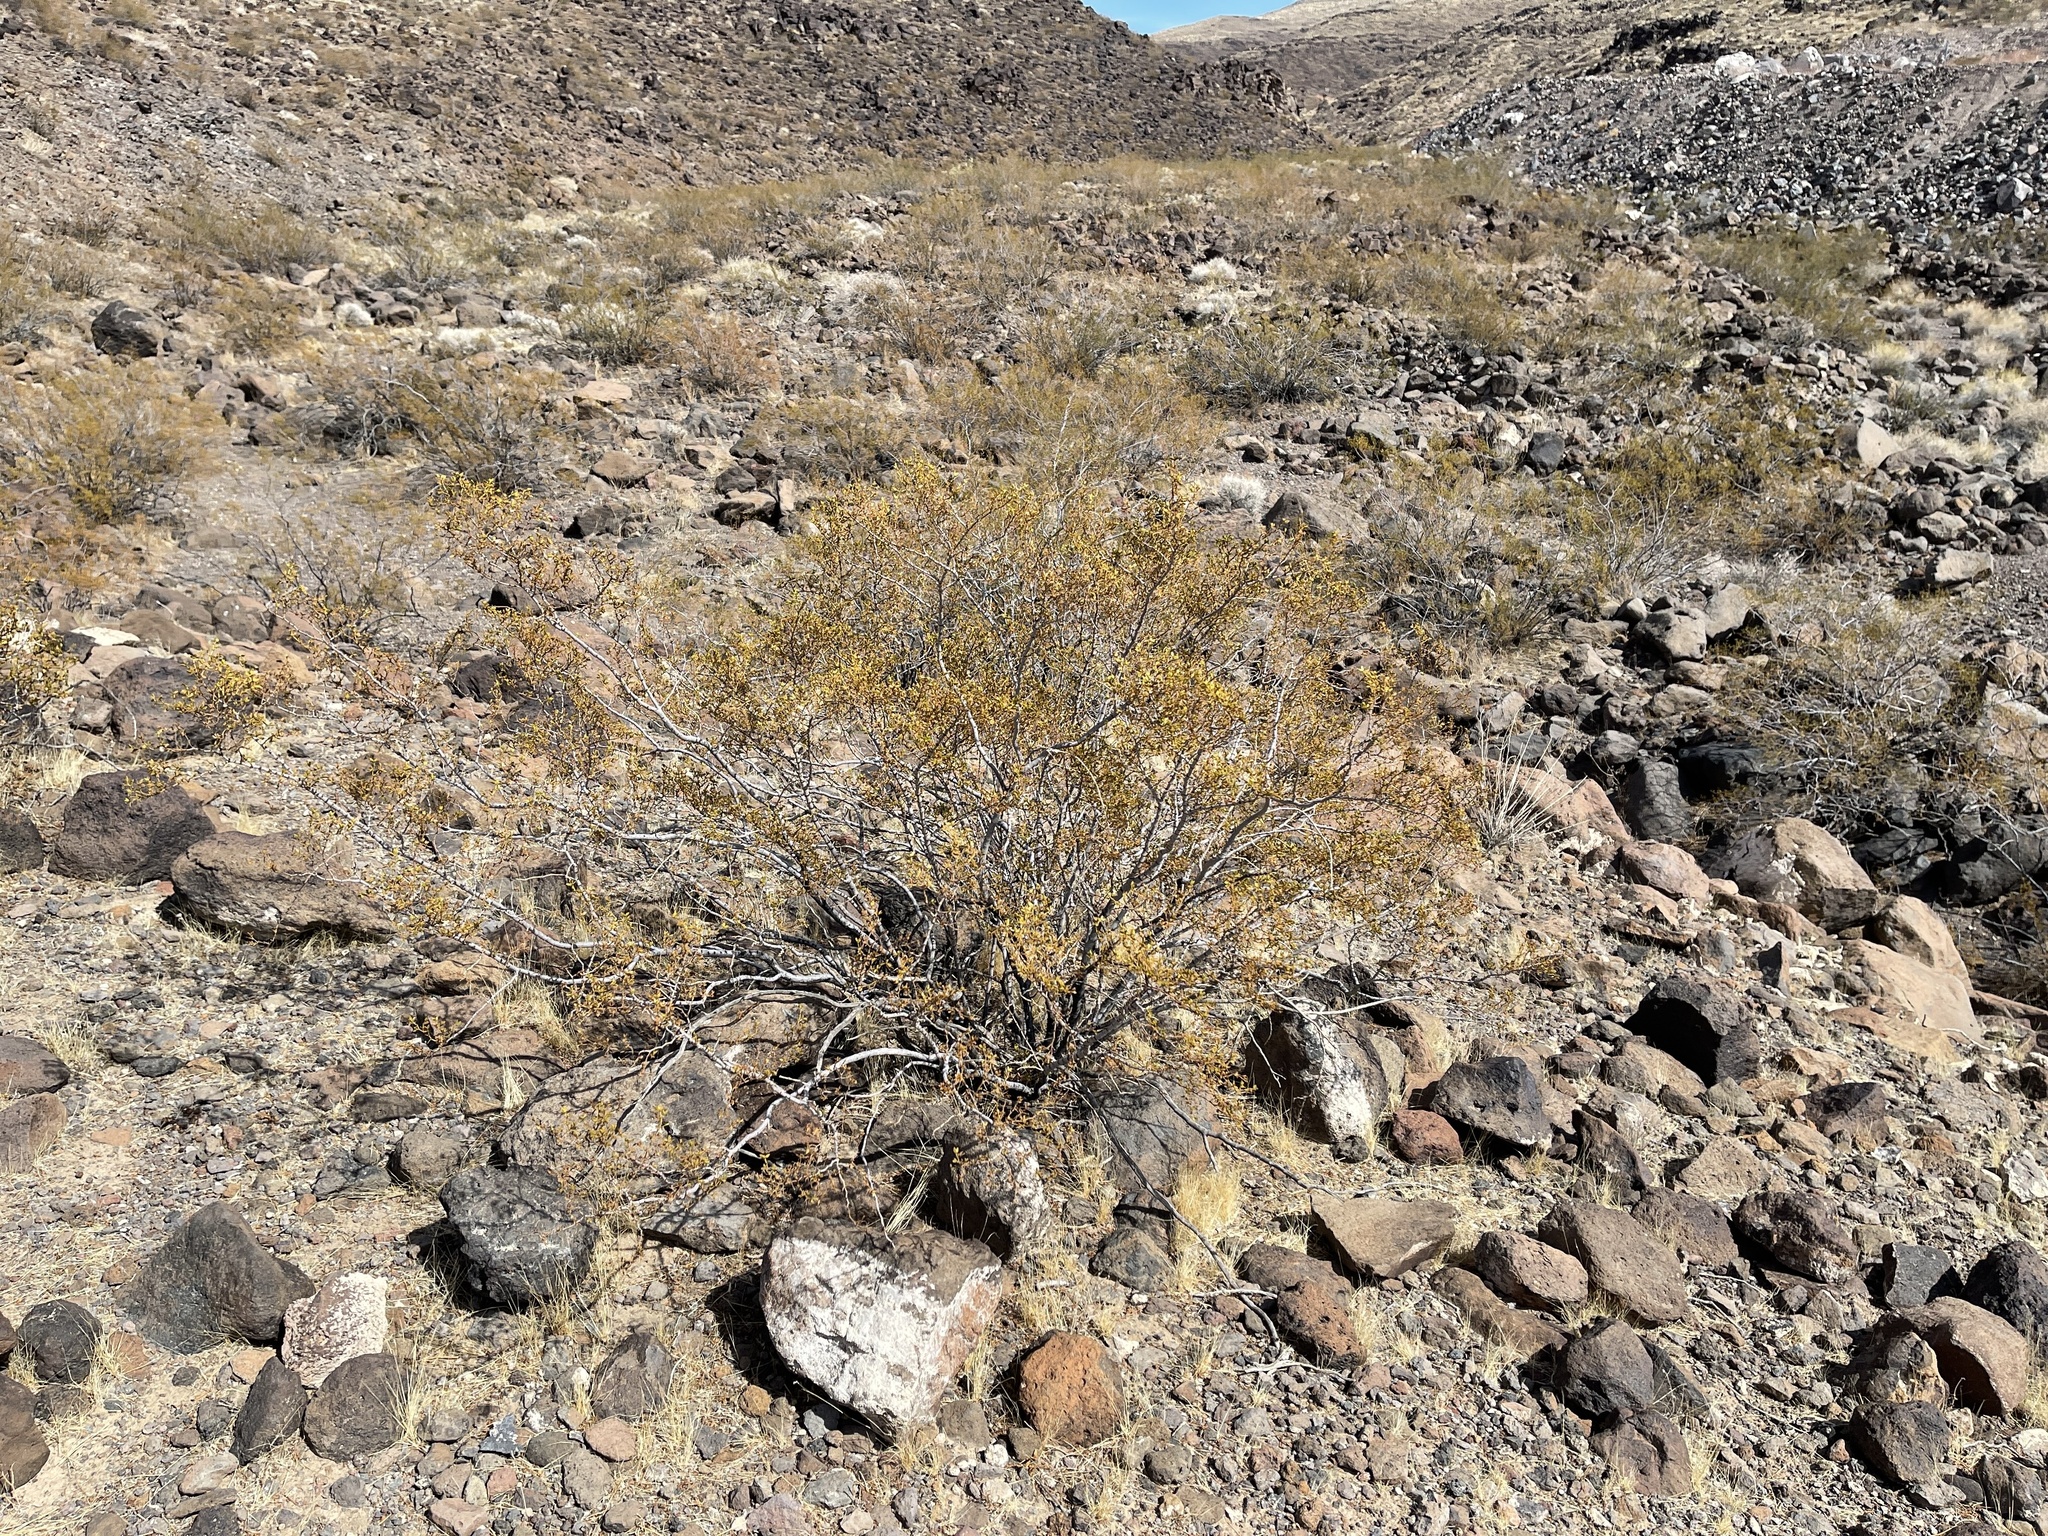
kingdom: Plantae
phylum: Tracheophyta
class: Magnoliopsida
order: Zygophyllales
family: Zygophyllaceae
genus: Larrea
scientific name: Larrea tridentata
